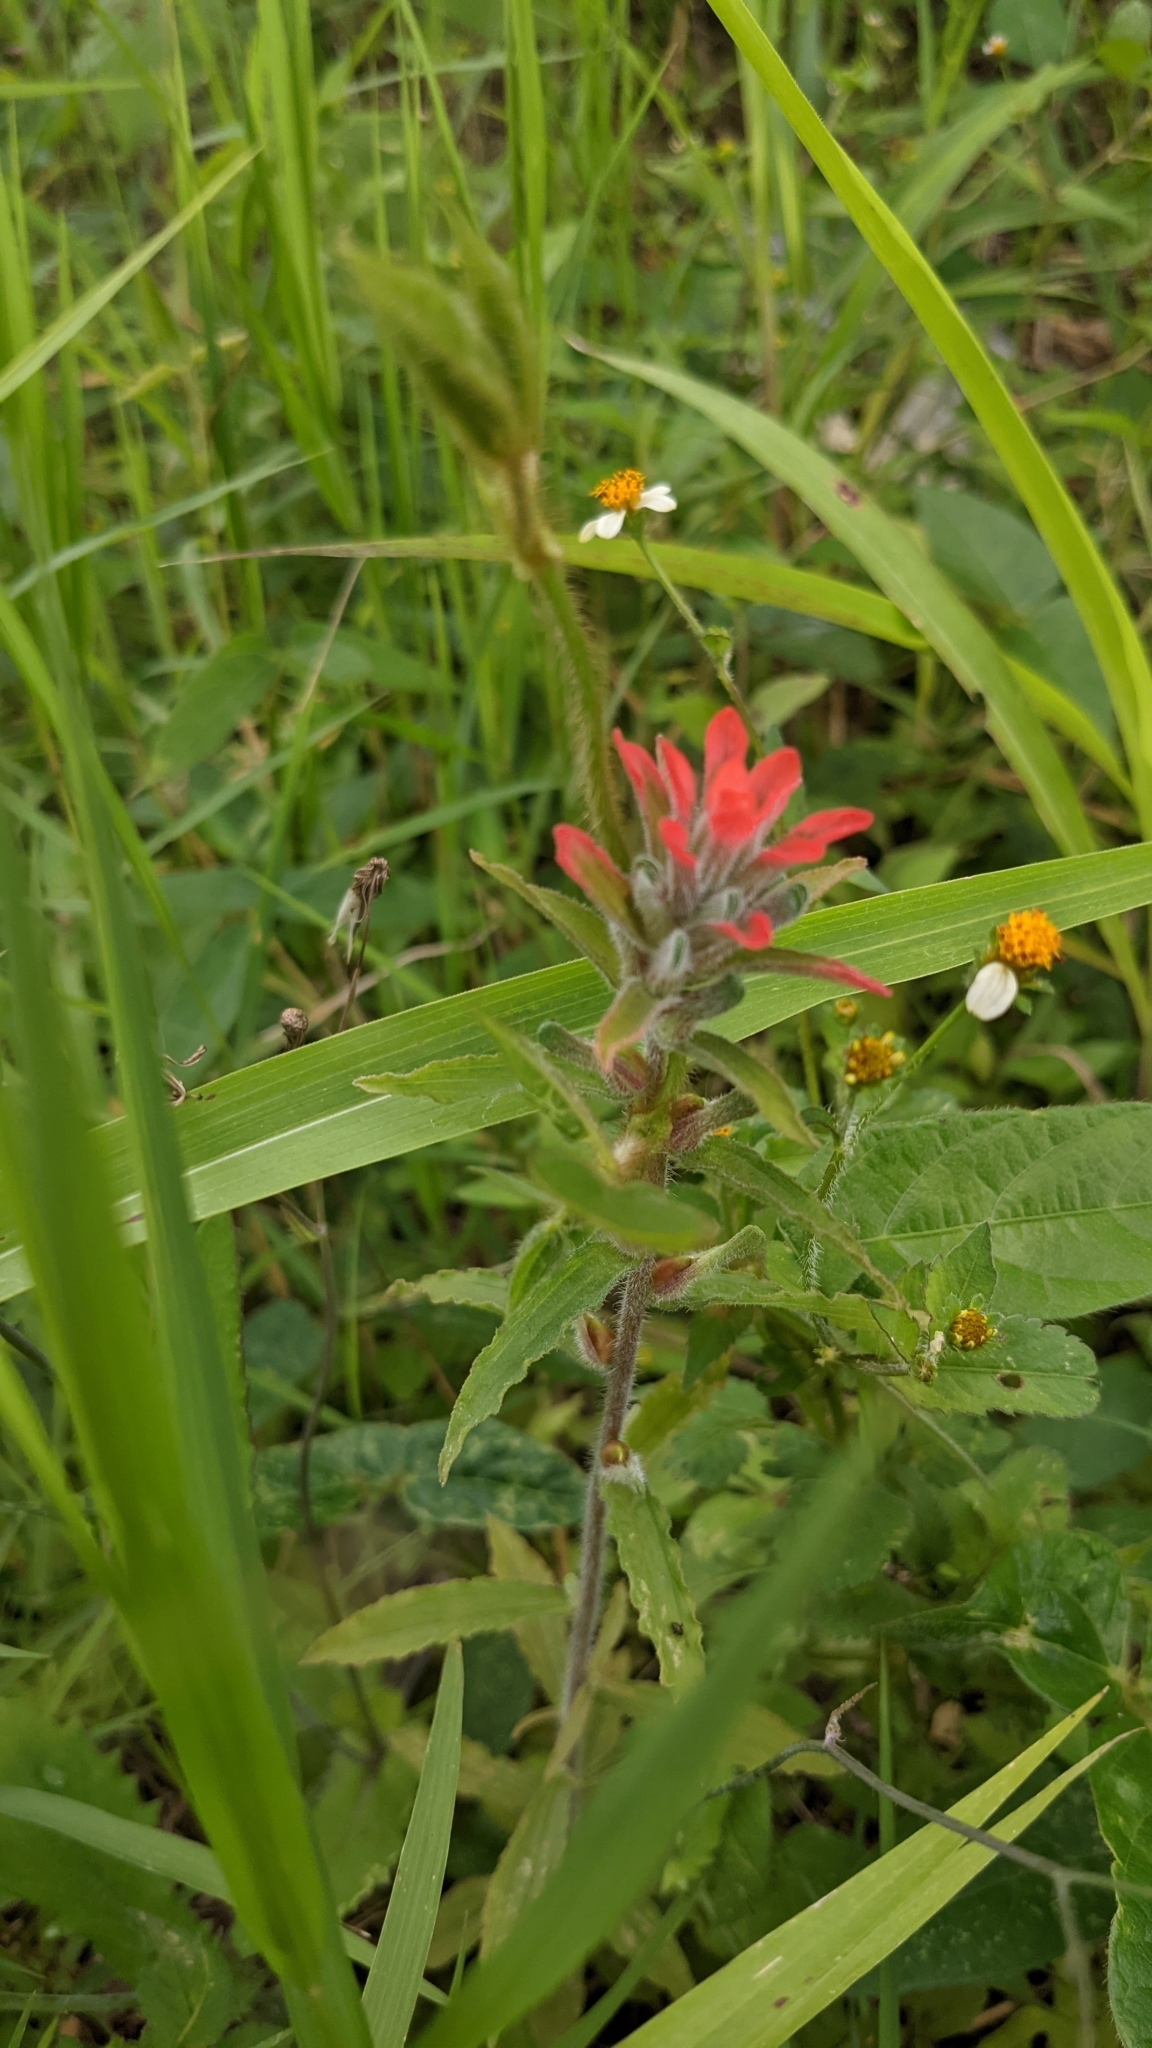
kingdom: Plantae
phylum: Tracheophyta
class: Magnoliopsida
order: Lamiales
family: Orobanchaceae
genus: Castilleja
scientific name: Castilleja arvensis
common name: Indian paintbrush
